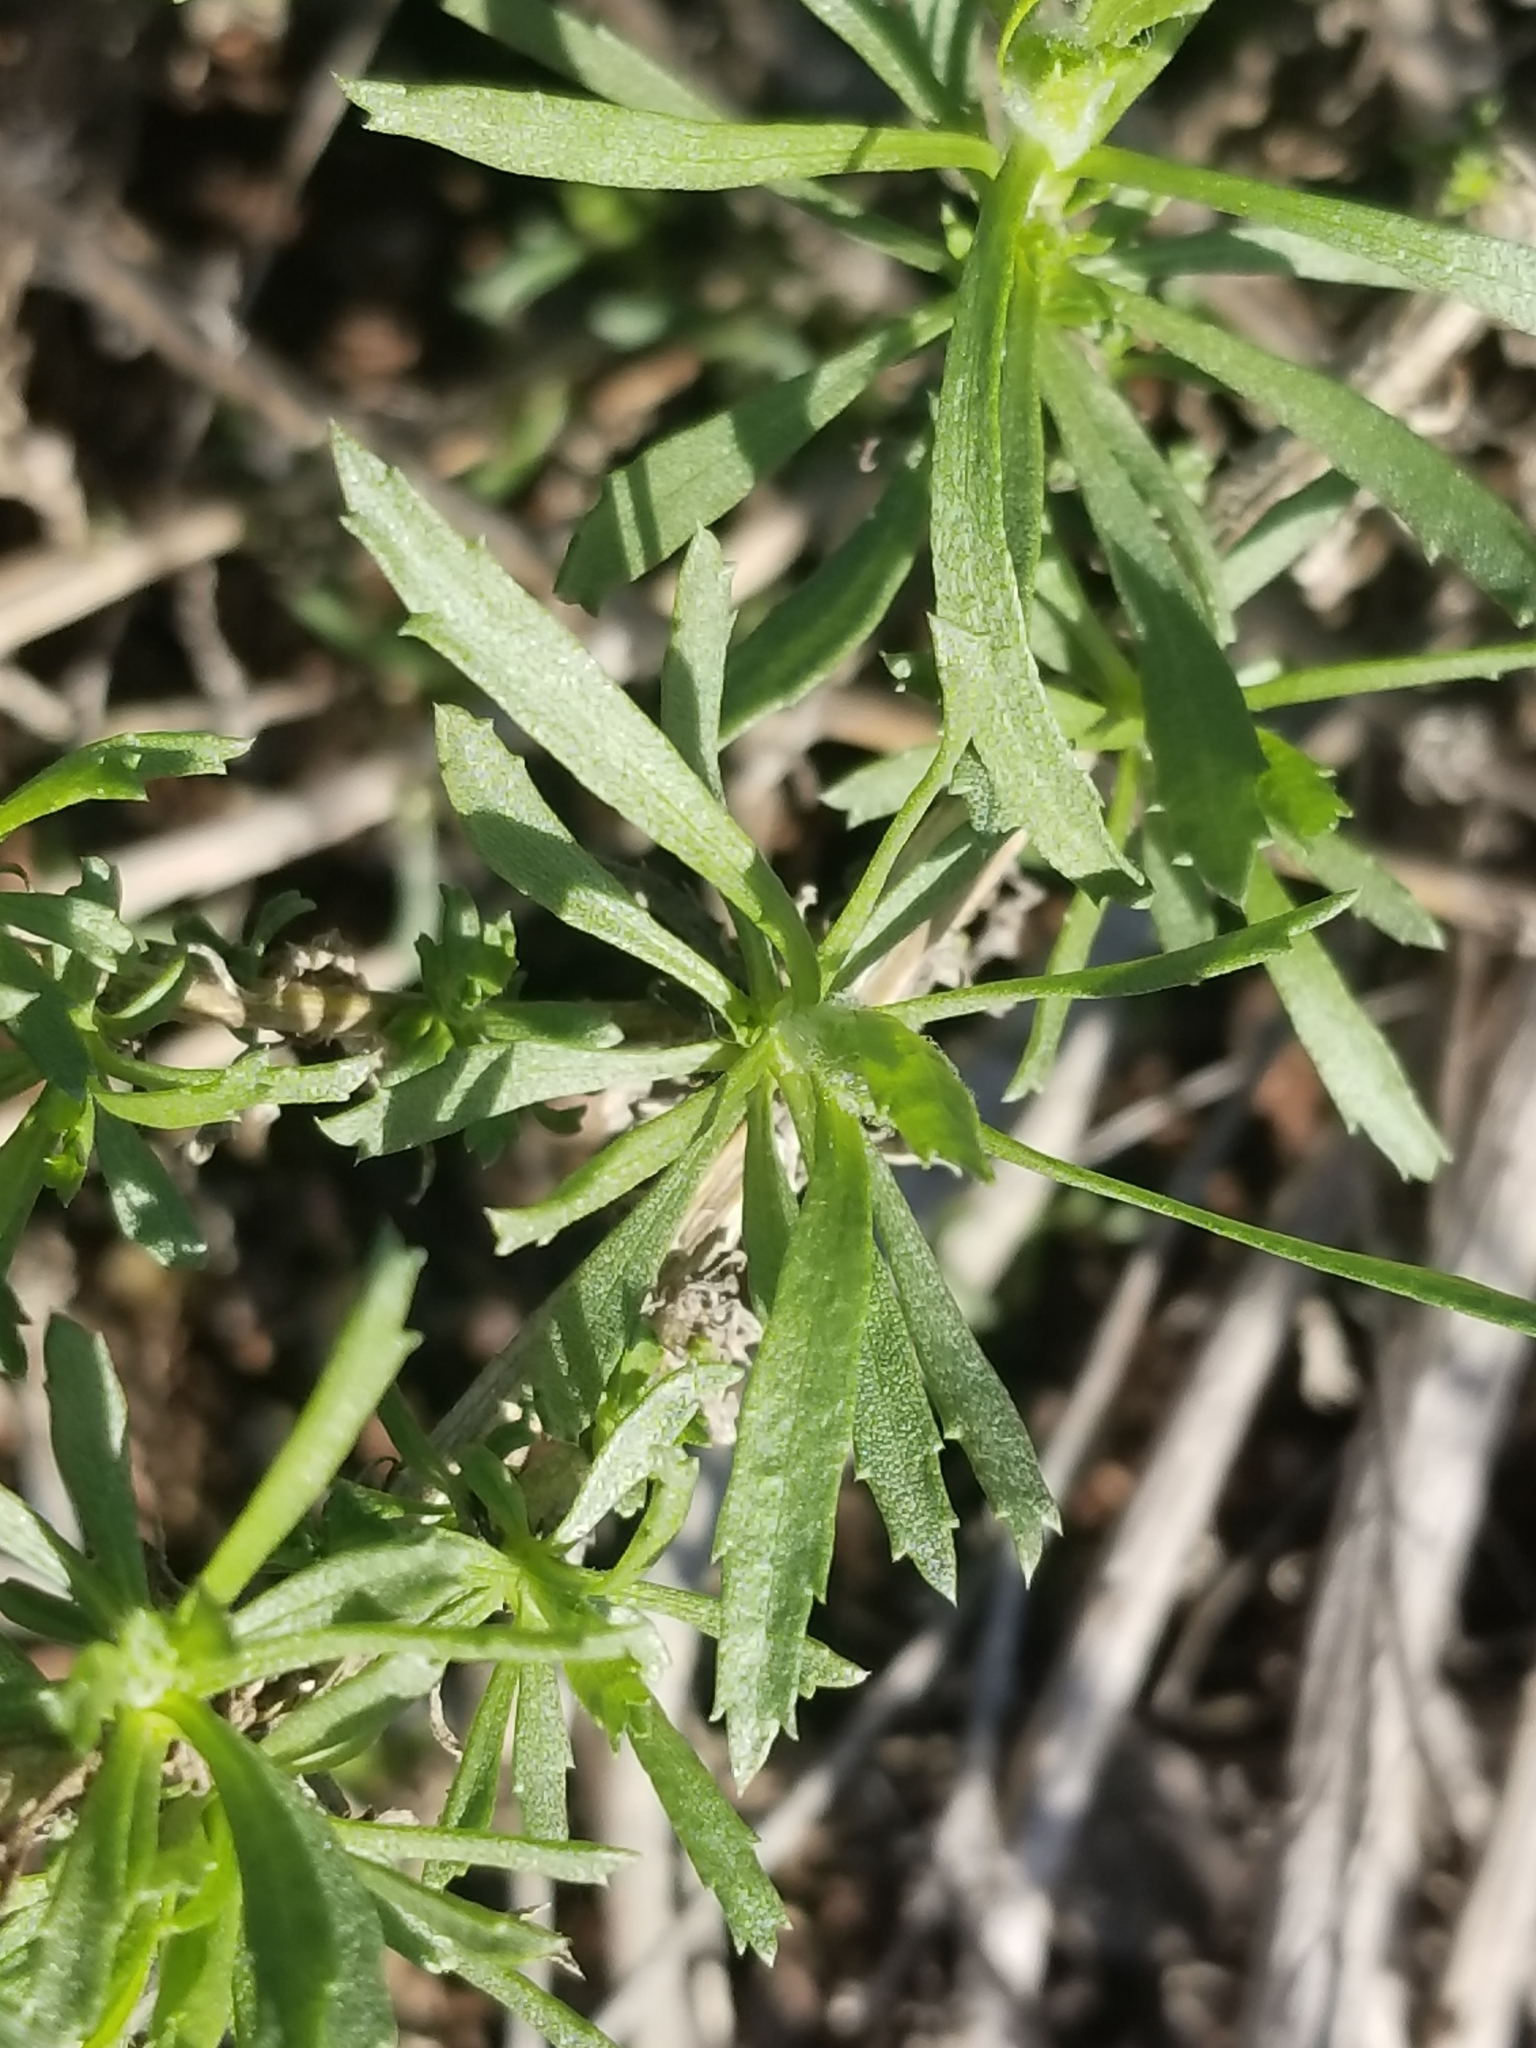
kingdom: Plantae
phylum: Tracheophyta
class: Magnoliopsida
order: Asterales
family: Asteraceae
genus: Isocoma
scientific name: Isocoma menziesii
